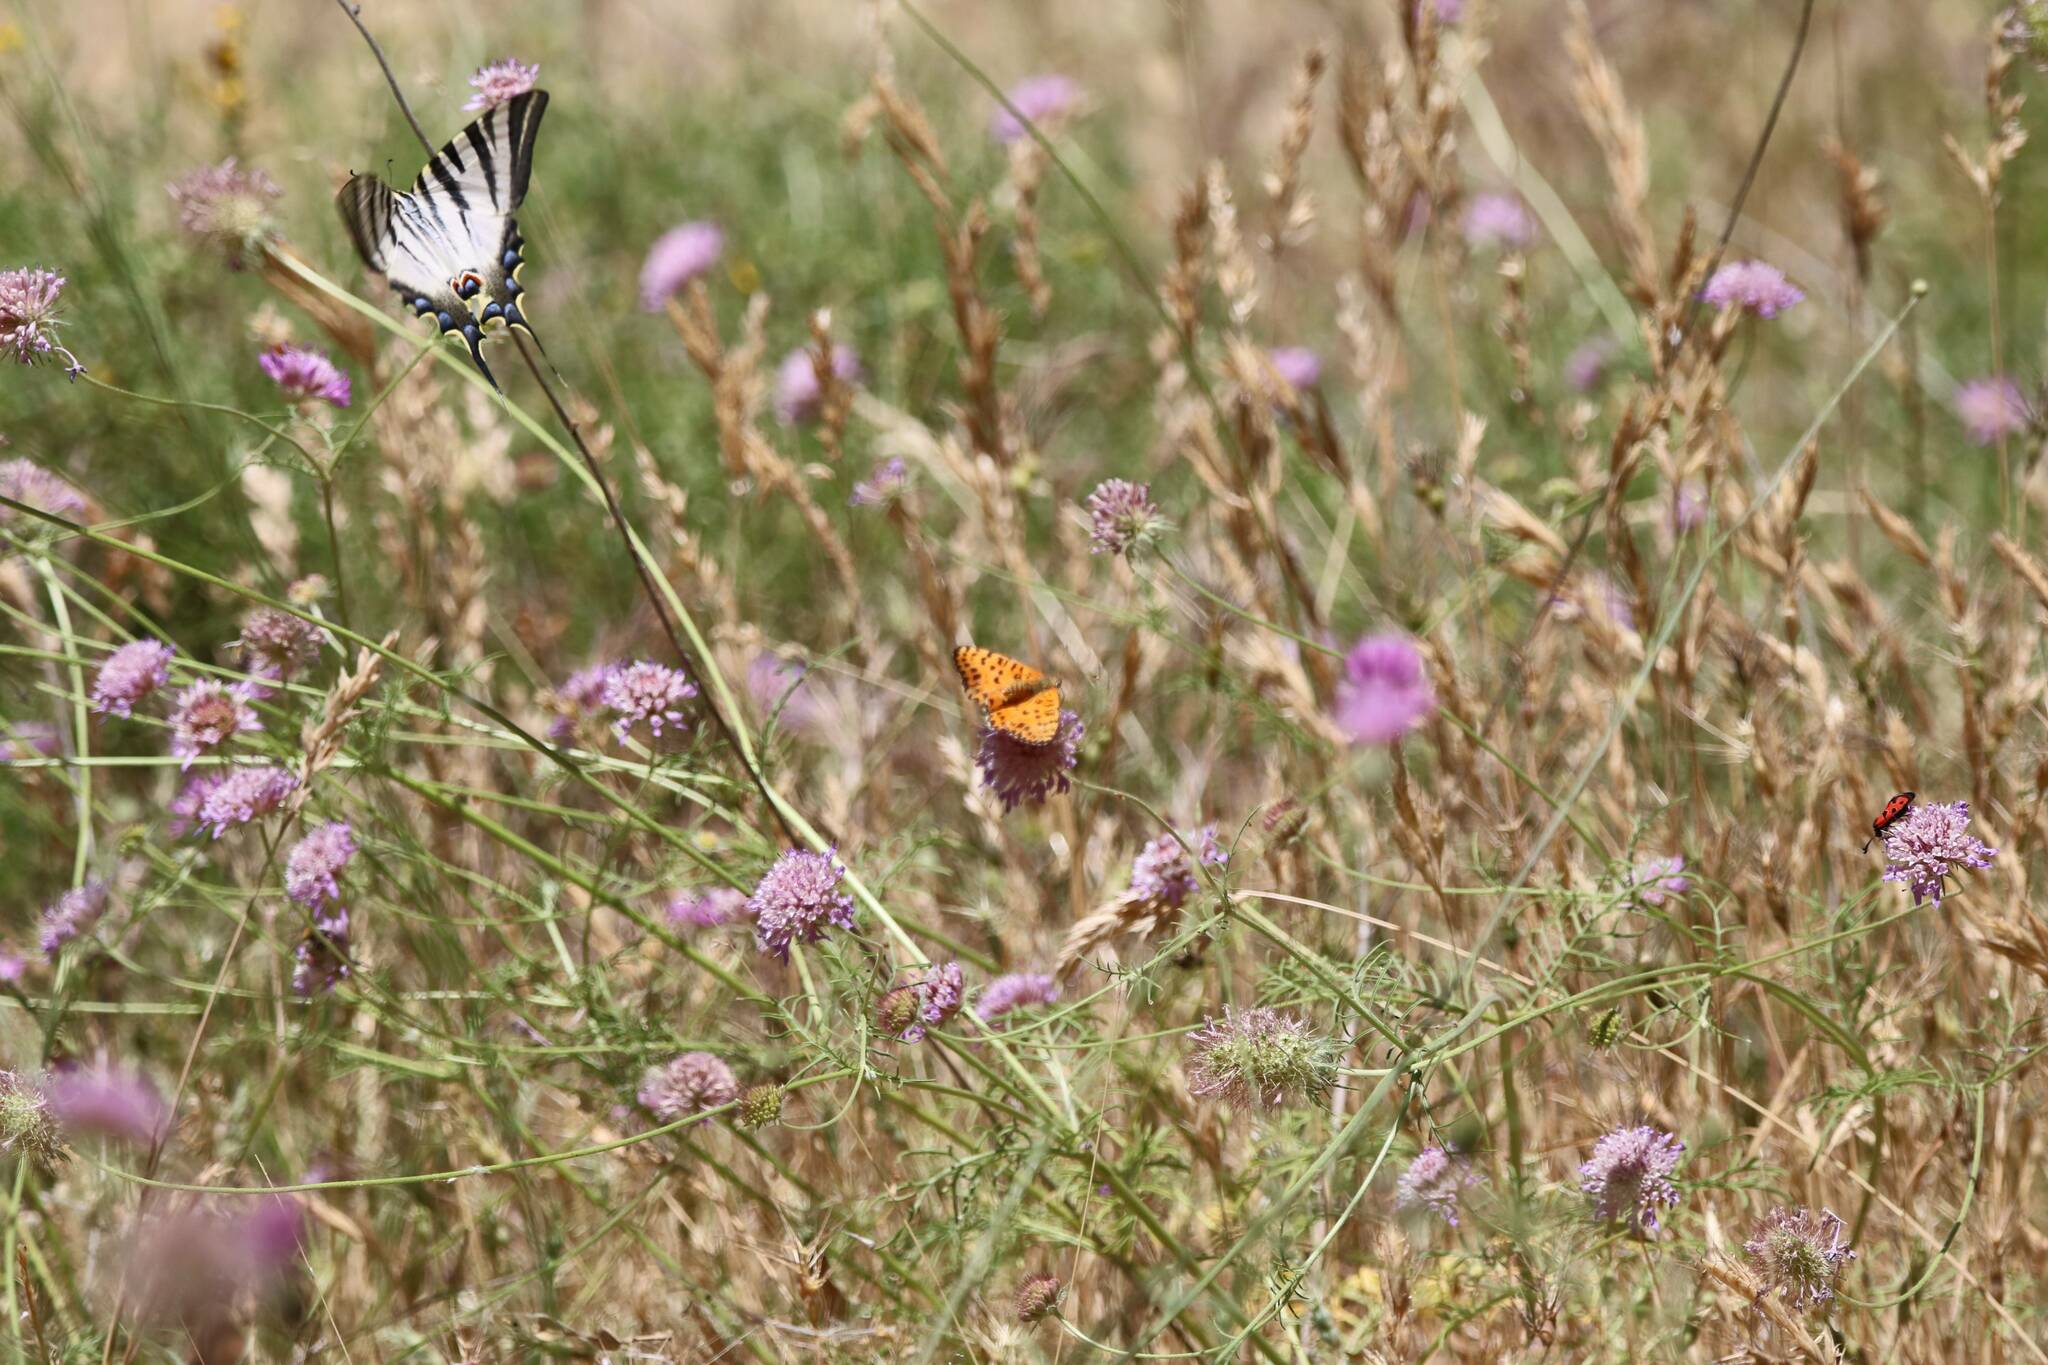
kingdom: Animalia
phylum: Arthropoda
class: Insecta
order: Lepidoptera
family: Papilionidae
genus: Iphiclides
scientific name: Iphiclides feisthamelii
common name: Iberian scarce swallowtail
